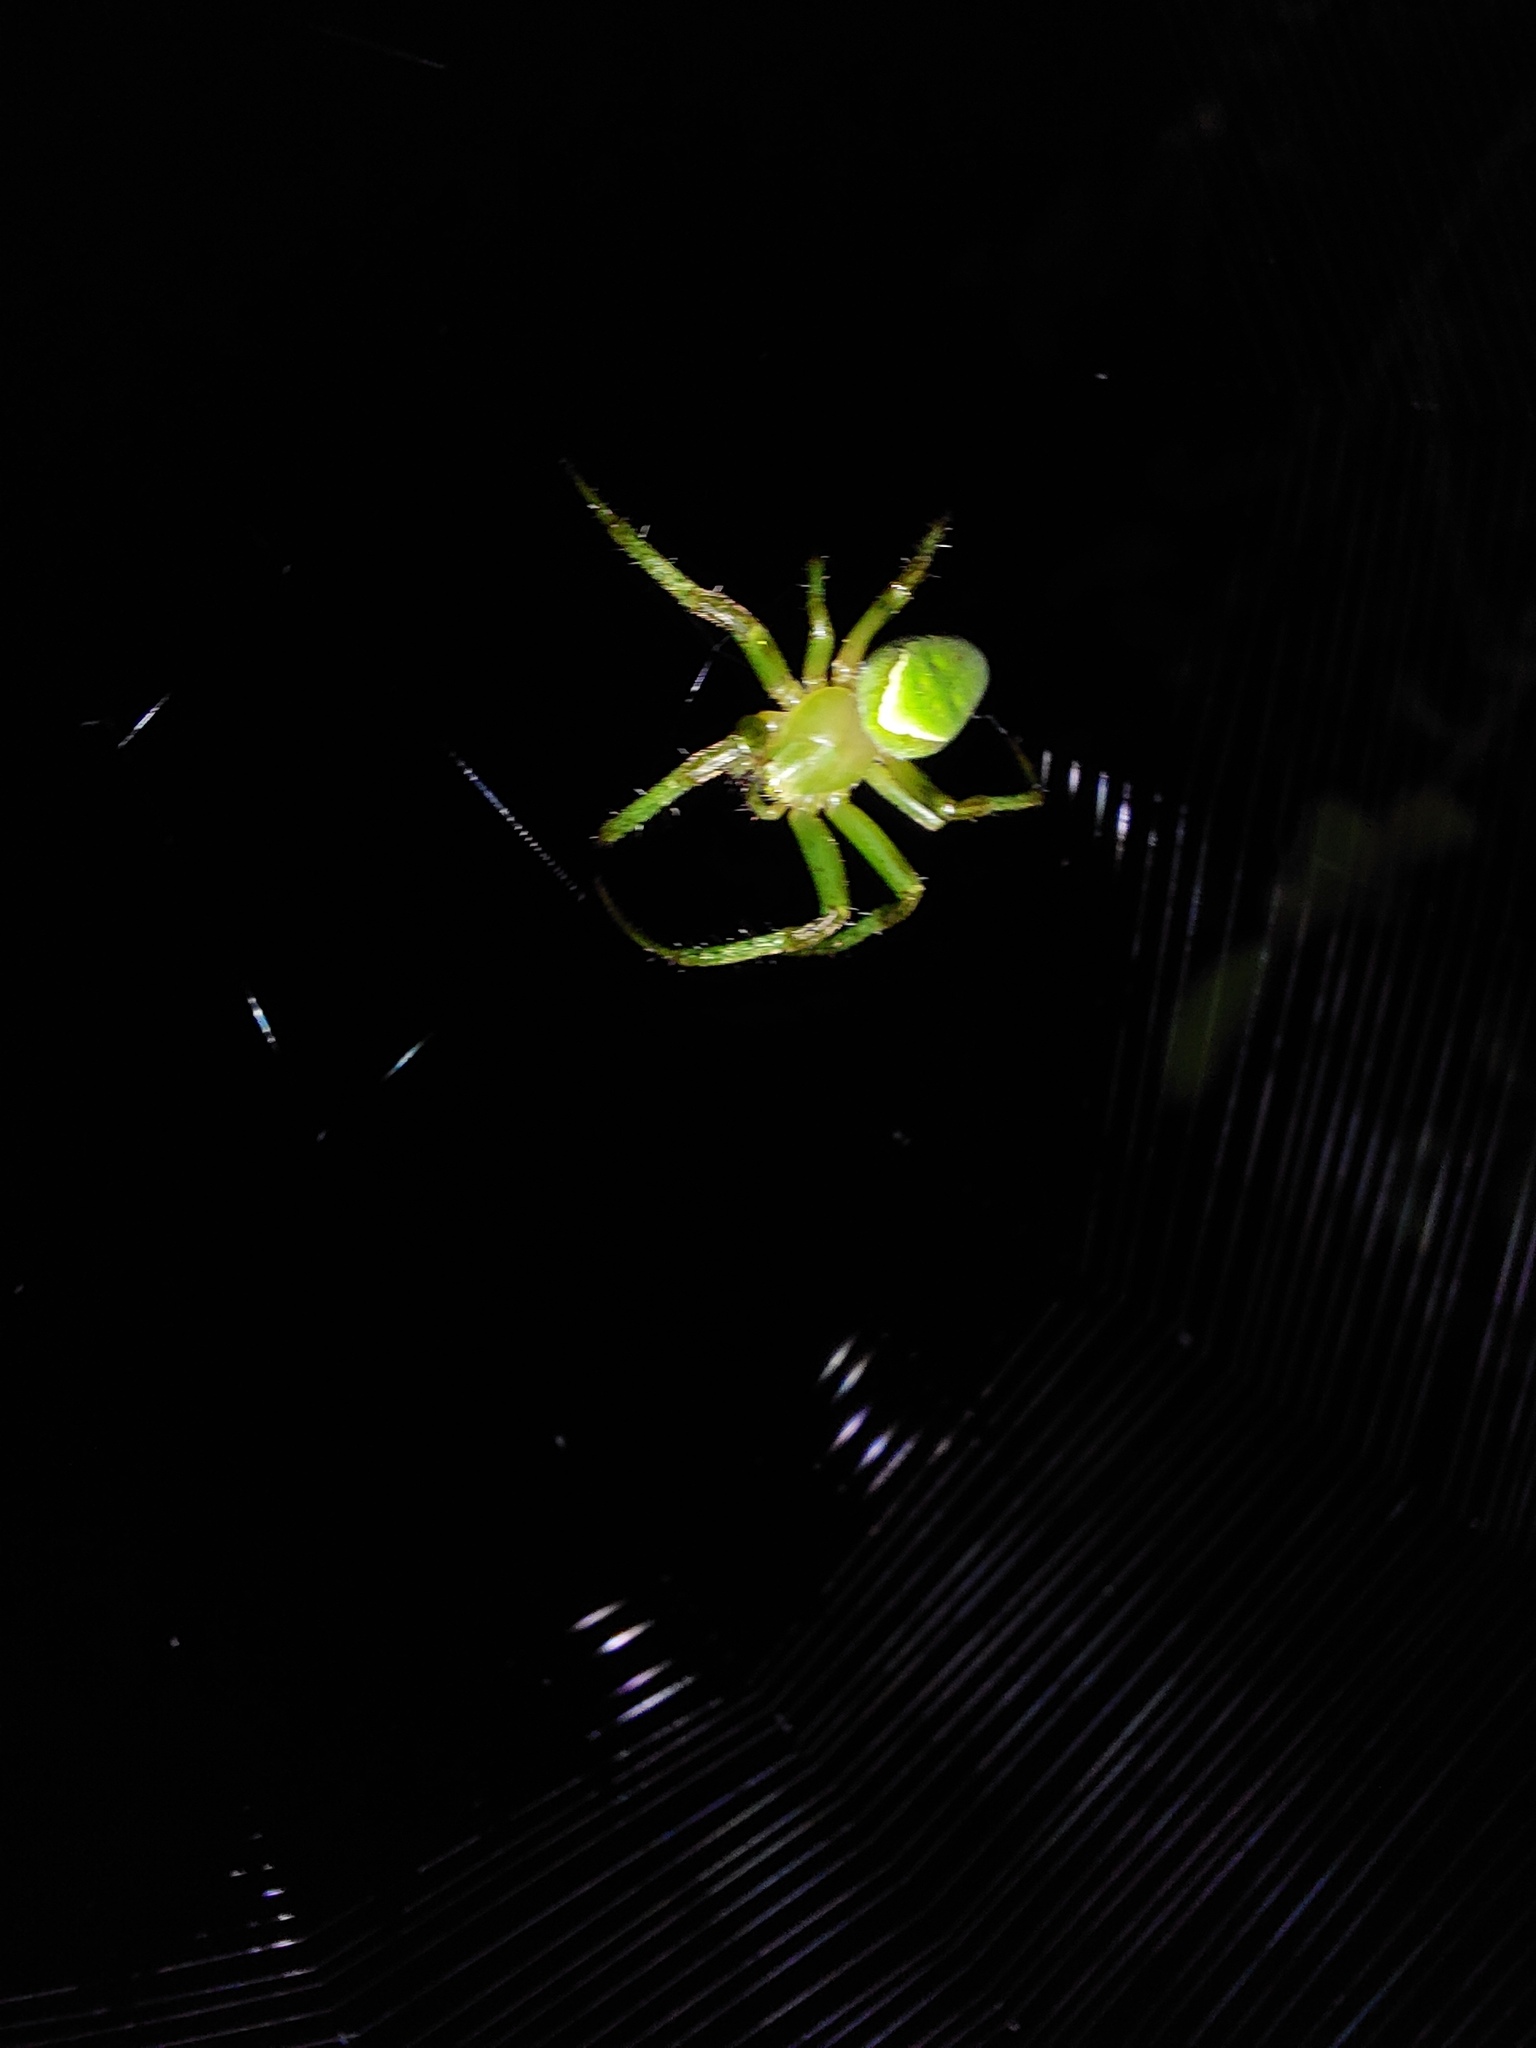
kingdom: Animalia
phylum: Arthropoda
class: Arachnida
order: Araneae
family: Araneidae
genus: Colaranea
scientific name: Colaranea viriditas
